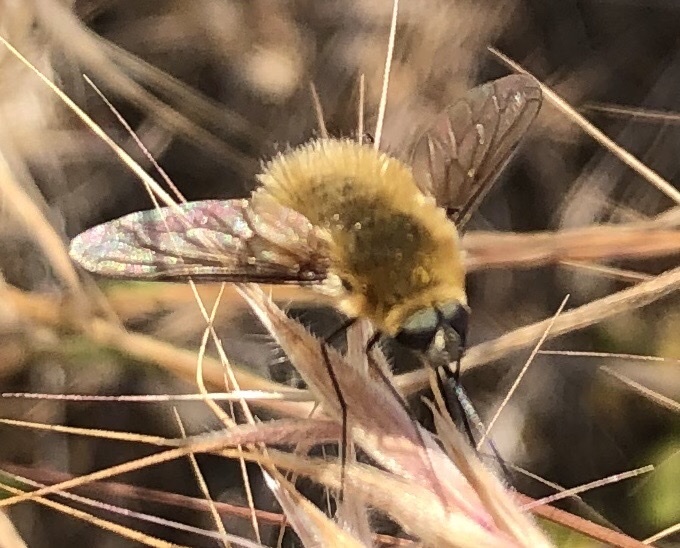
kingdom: Animalia
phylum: Arthropoda
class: Insecta
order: Diptera
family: Bombyliidae
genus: Systoechus
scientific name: Systoechus ctenopterus
